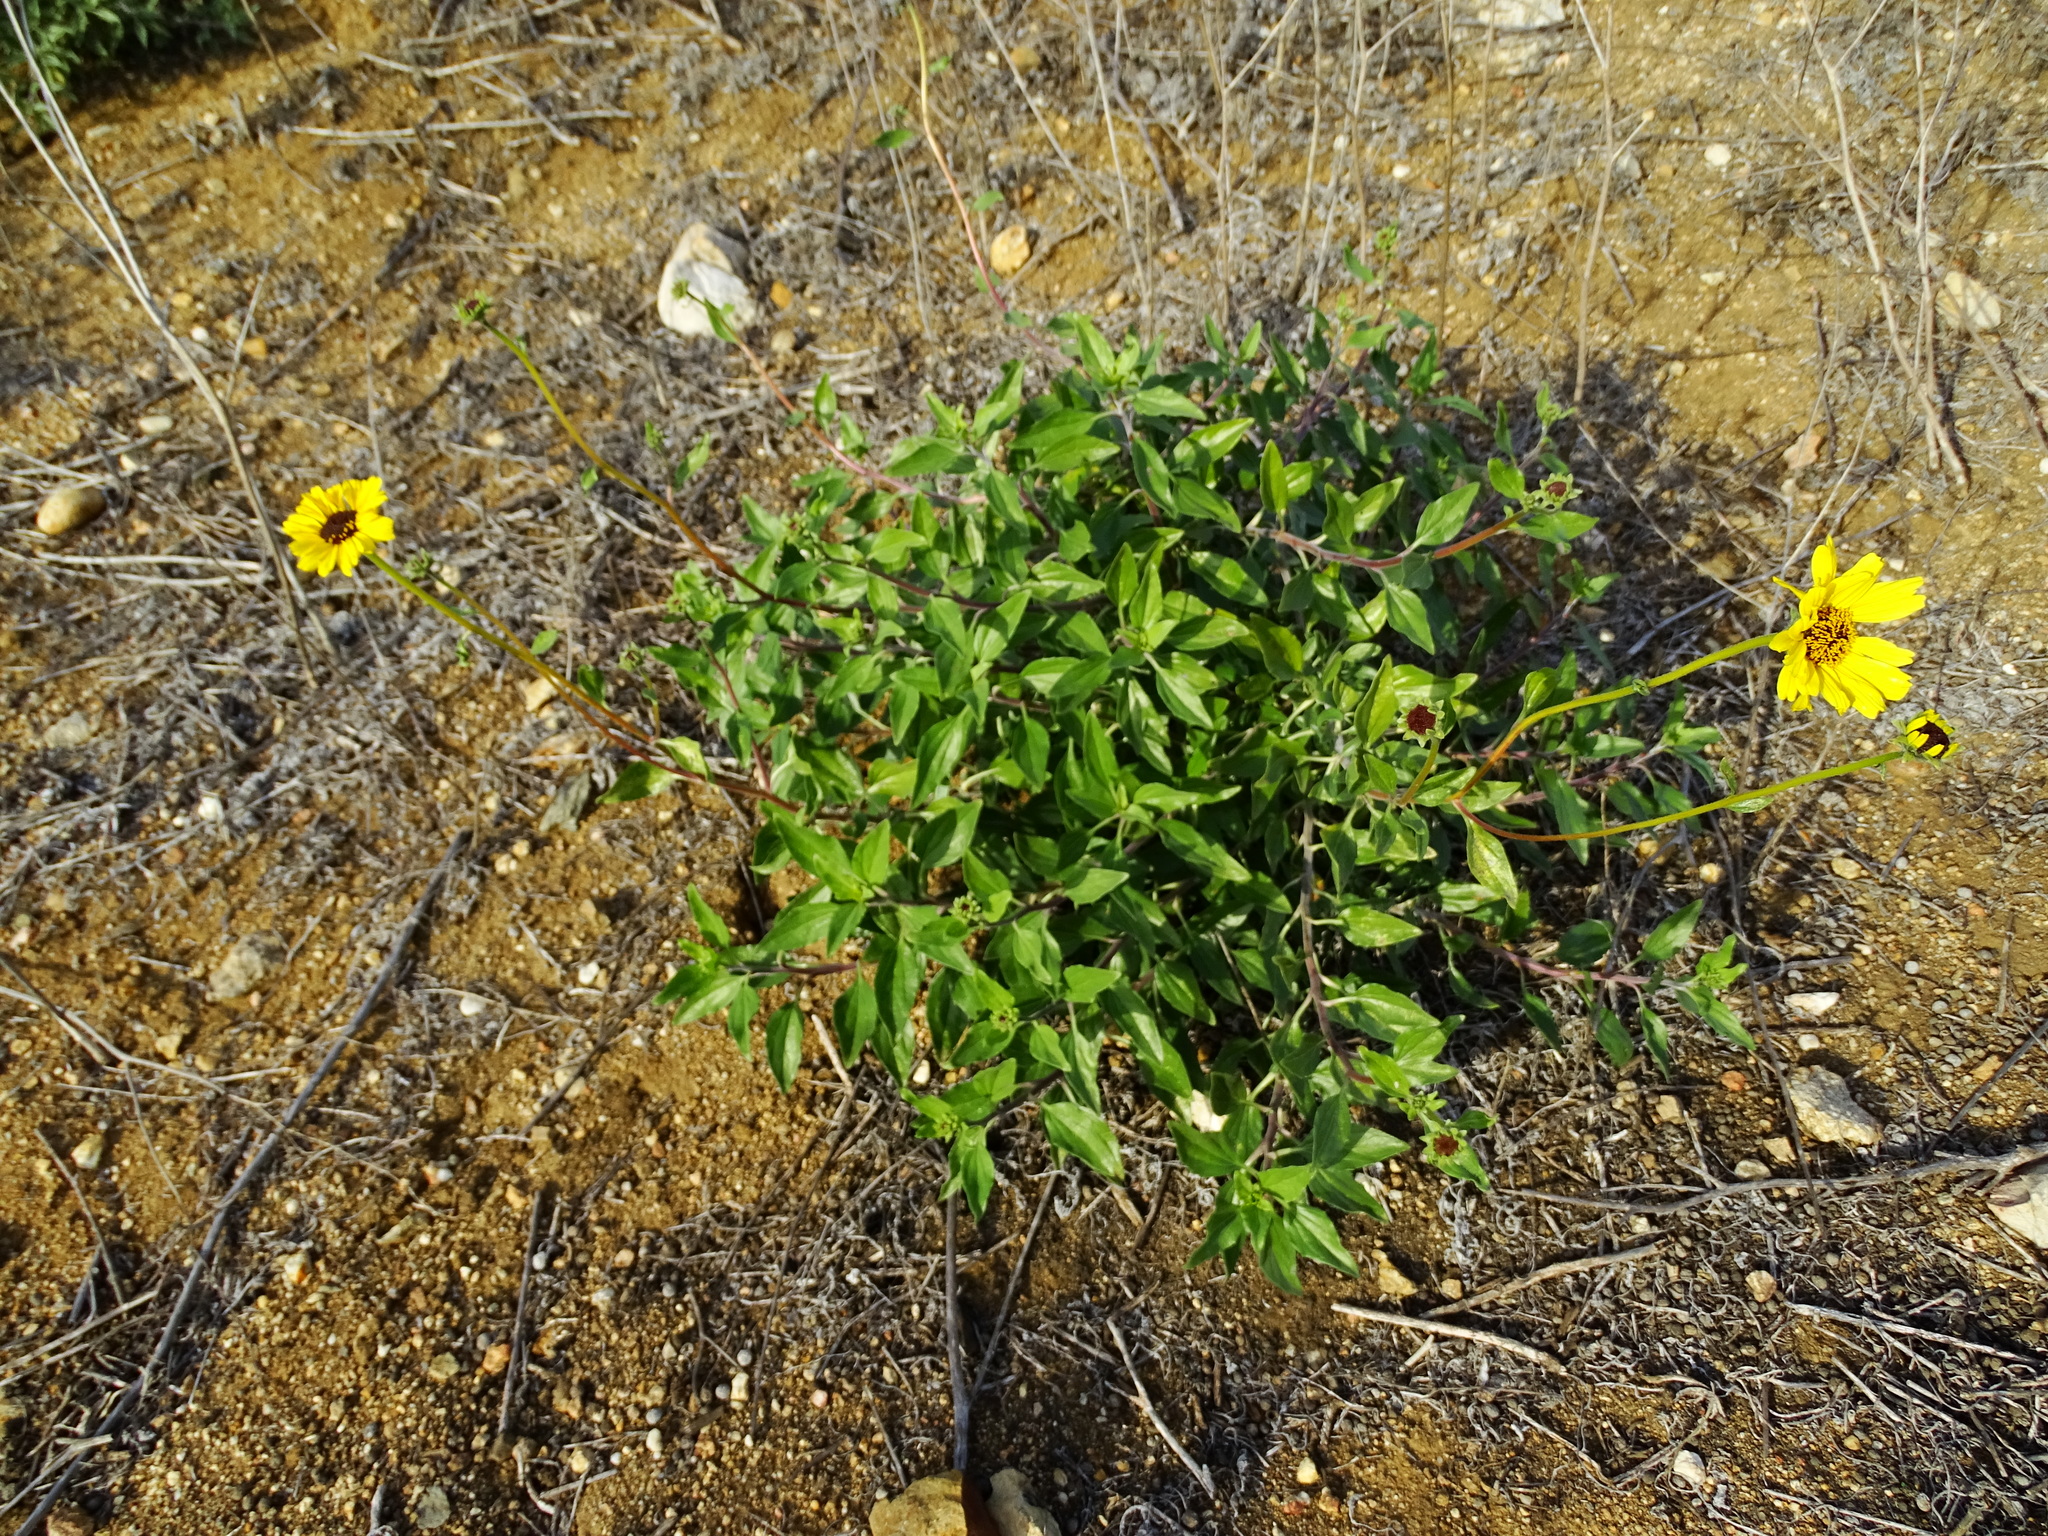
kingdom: Plantae
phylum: Tracheophyta
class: Magnoliopsida
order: Asterales
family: Asteraceae
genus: Encelia
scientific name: Encelia californica
